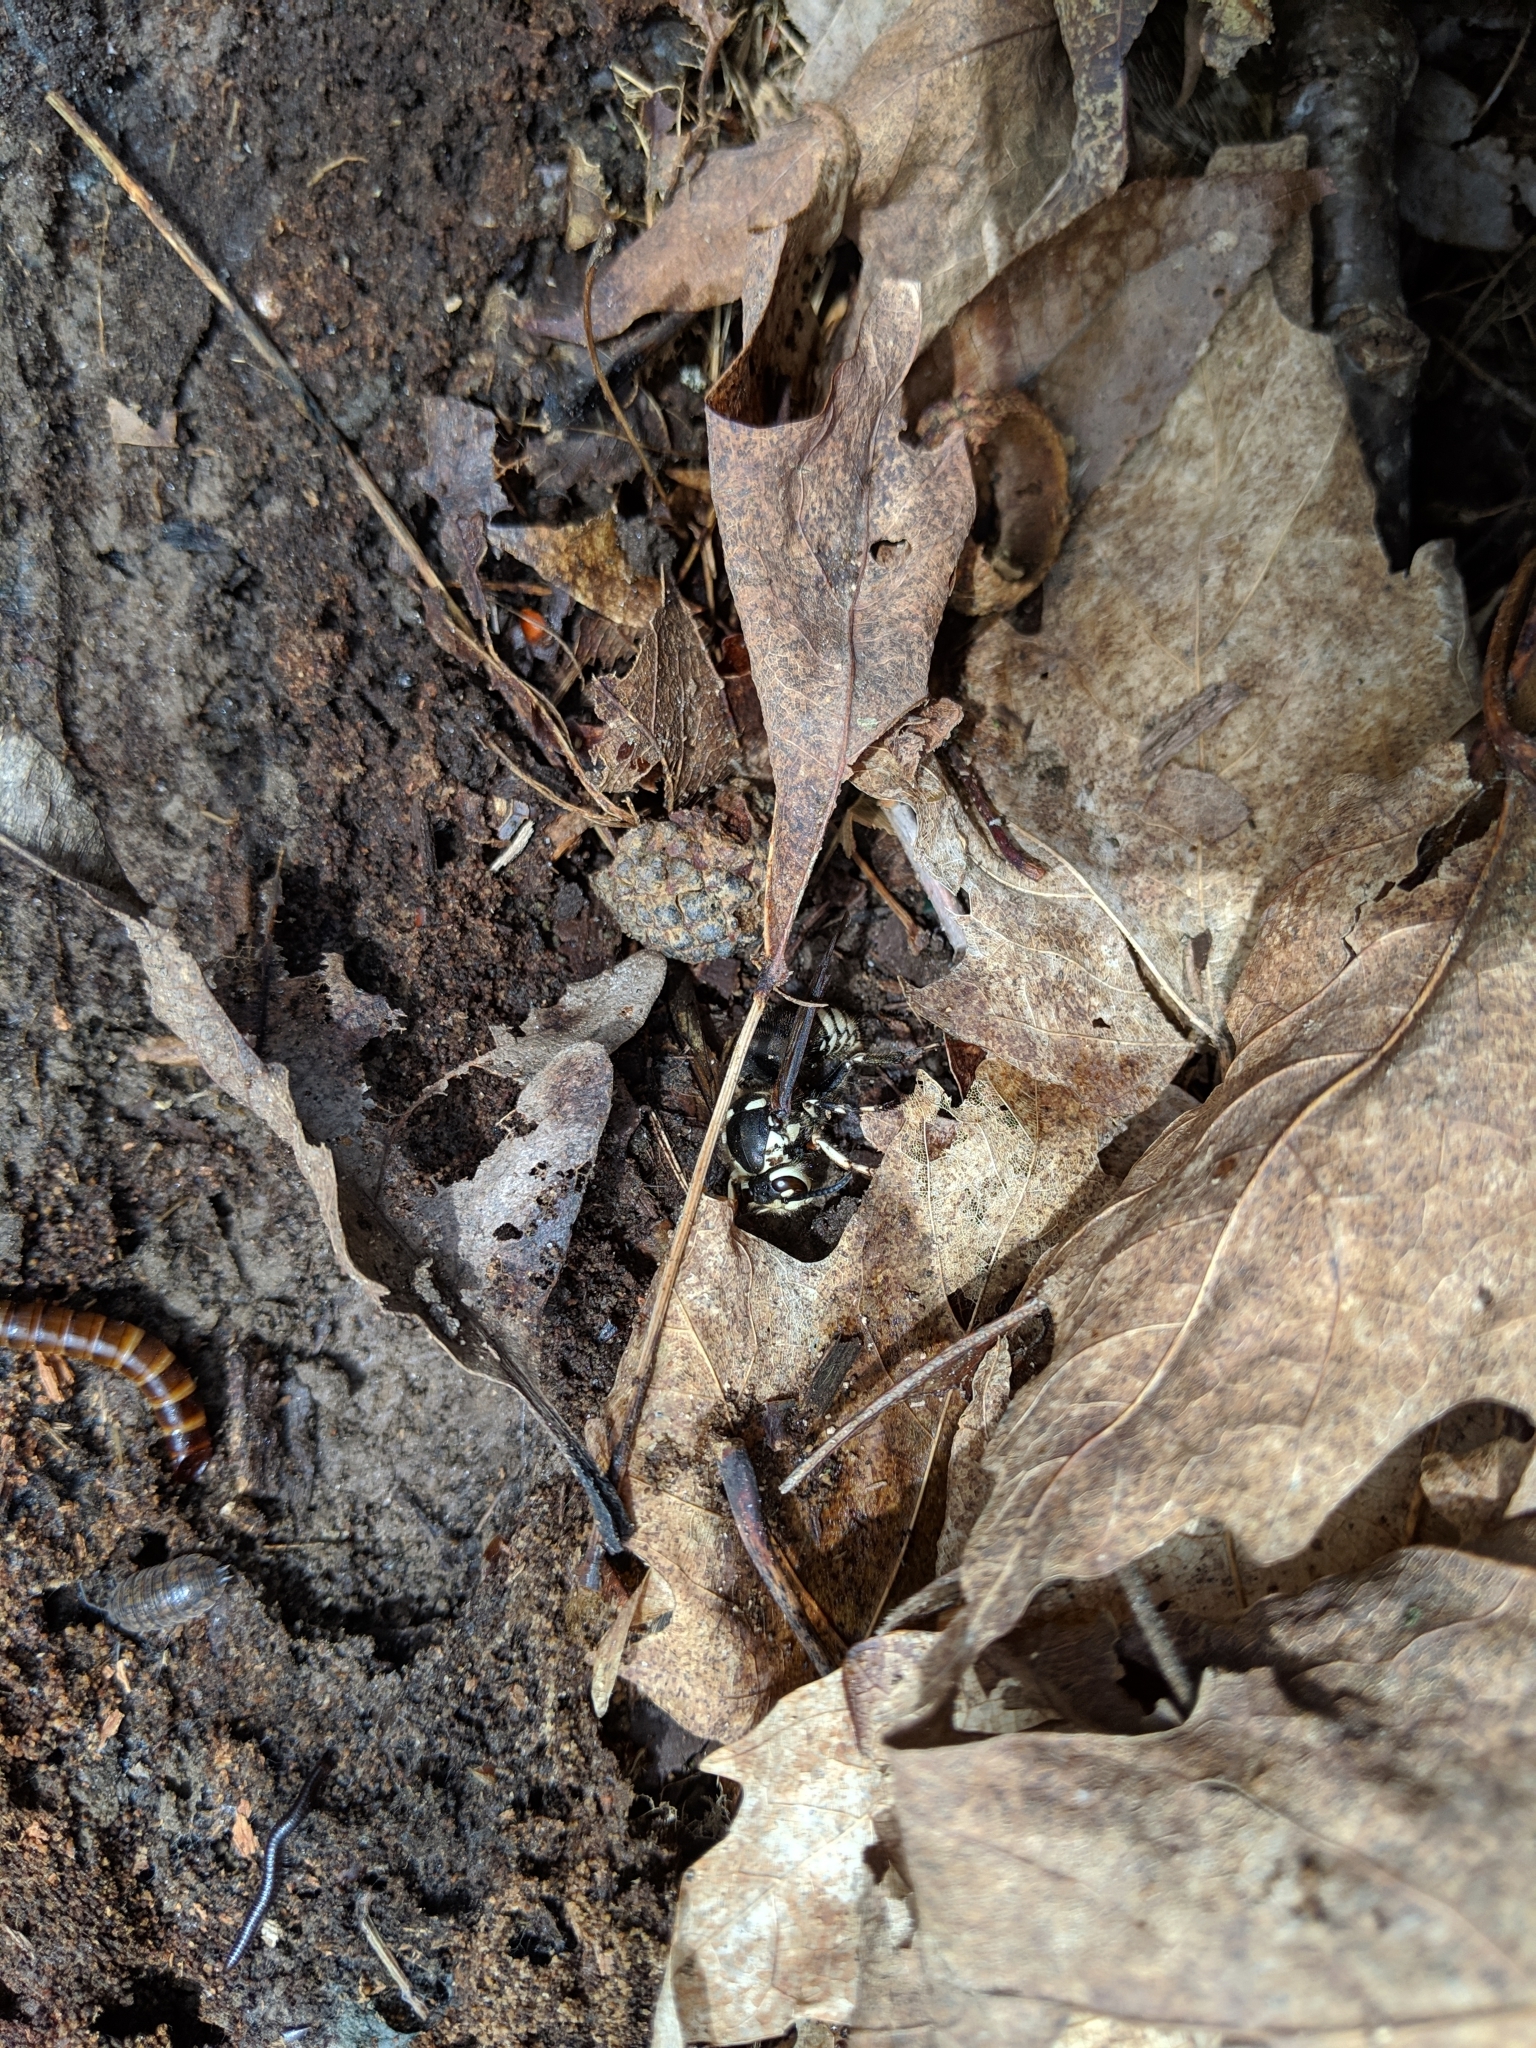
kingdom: Animalia
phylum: Arthropoda
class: Insecta
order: Hymenoptera
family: Vespidae
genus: Dolichovespula
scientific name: Dolichovespula maculata
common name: Bald-faced hornet
